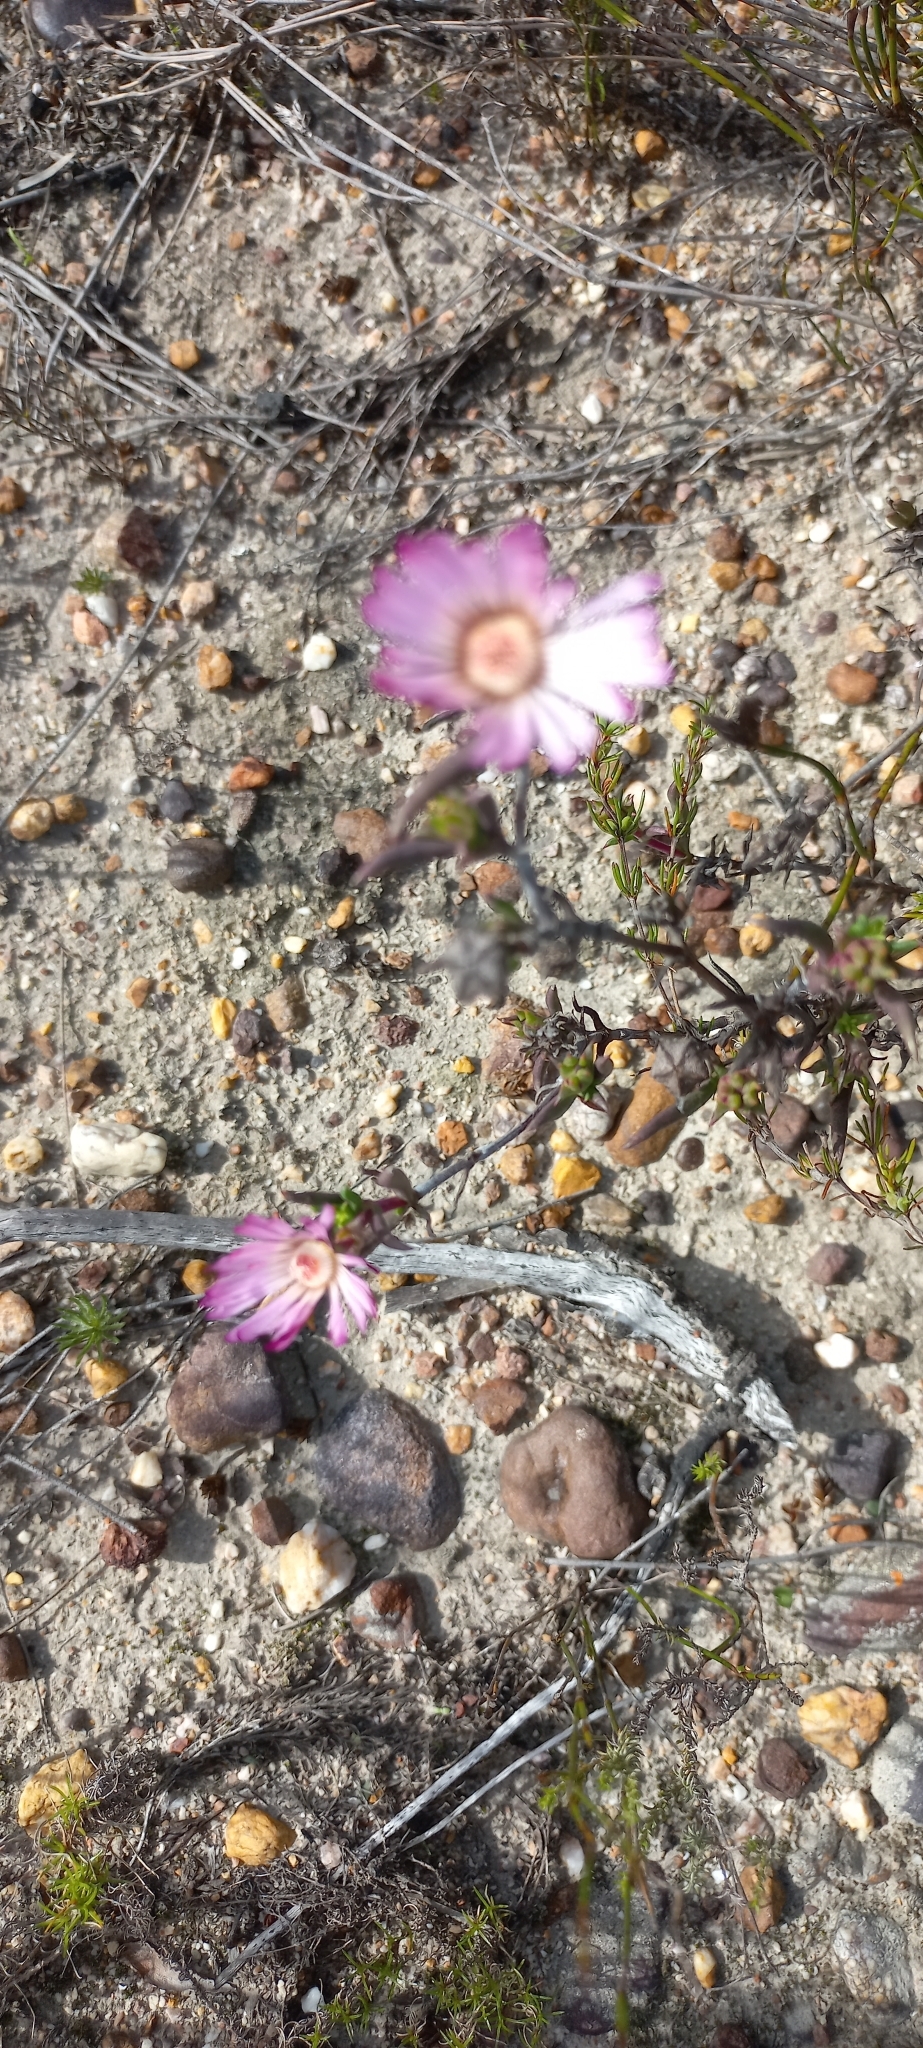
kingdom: Plantae
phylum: Tracheophyta
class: Magnoliopsida
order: Caryophyllales
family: Aizoaceae
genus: Lampranthus
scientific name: Lampranthus spiniformis
